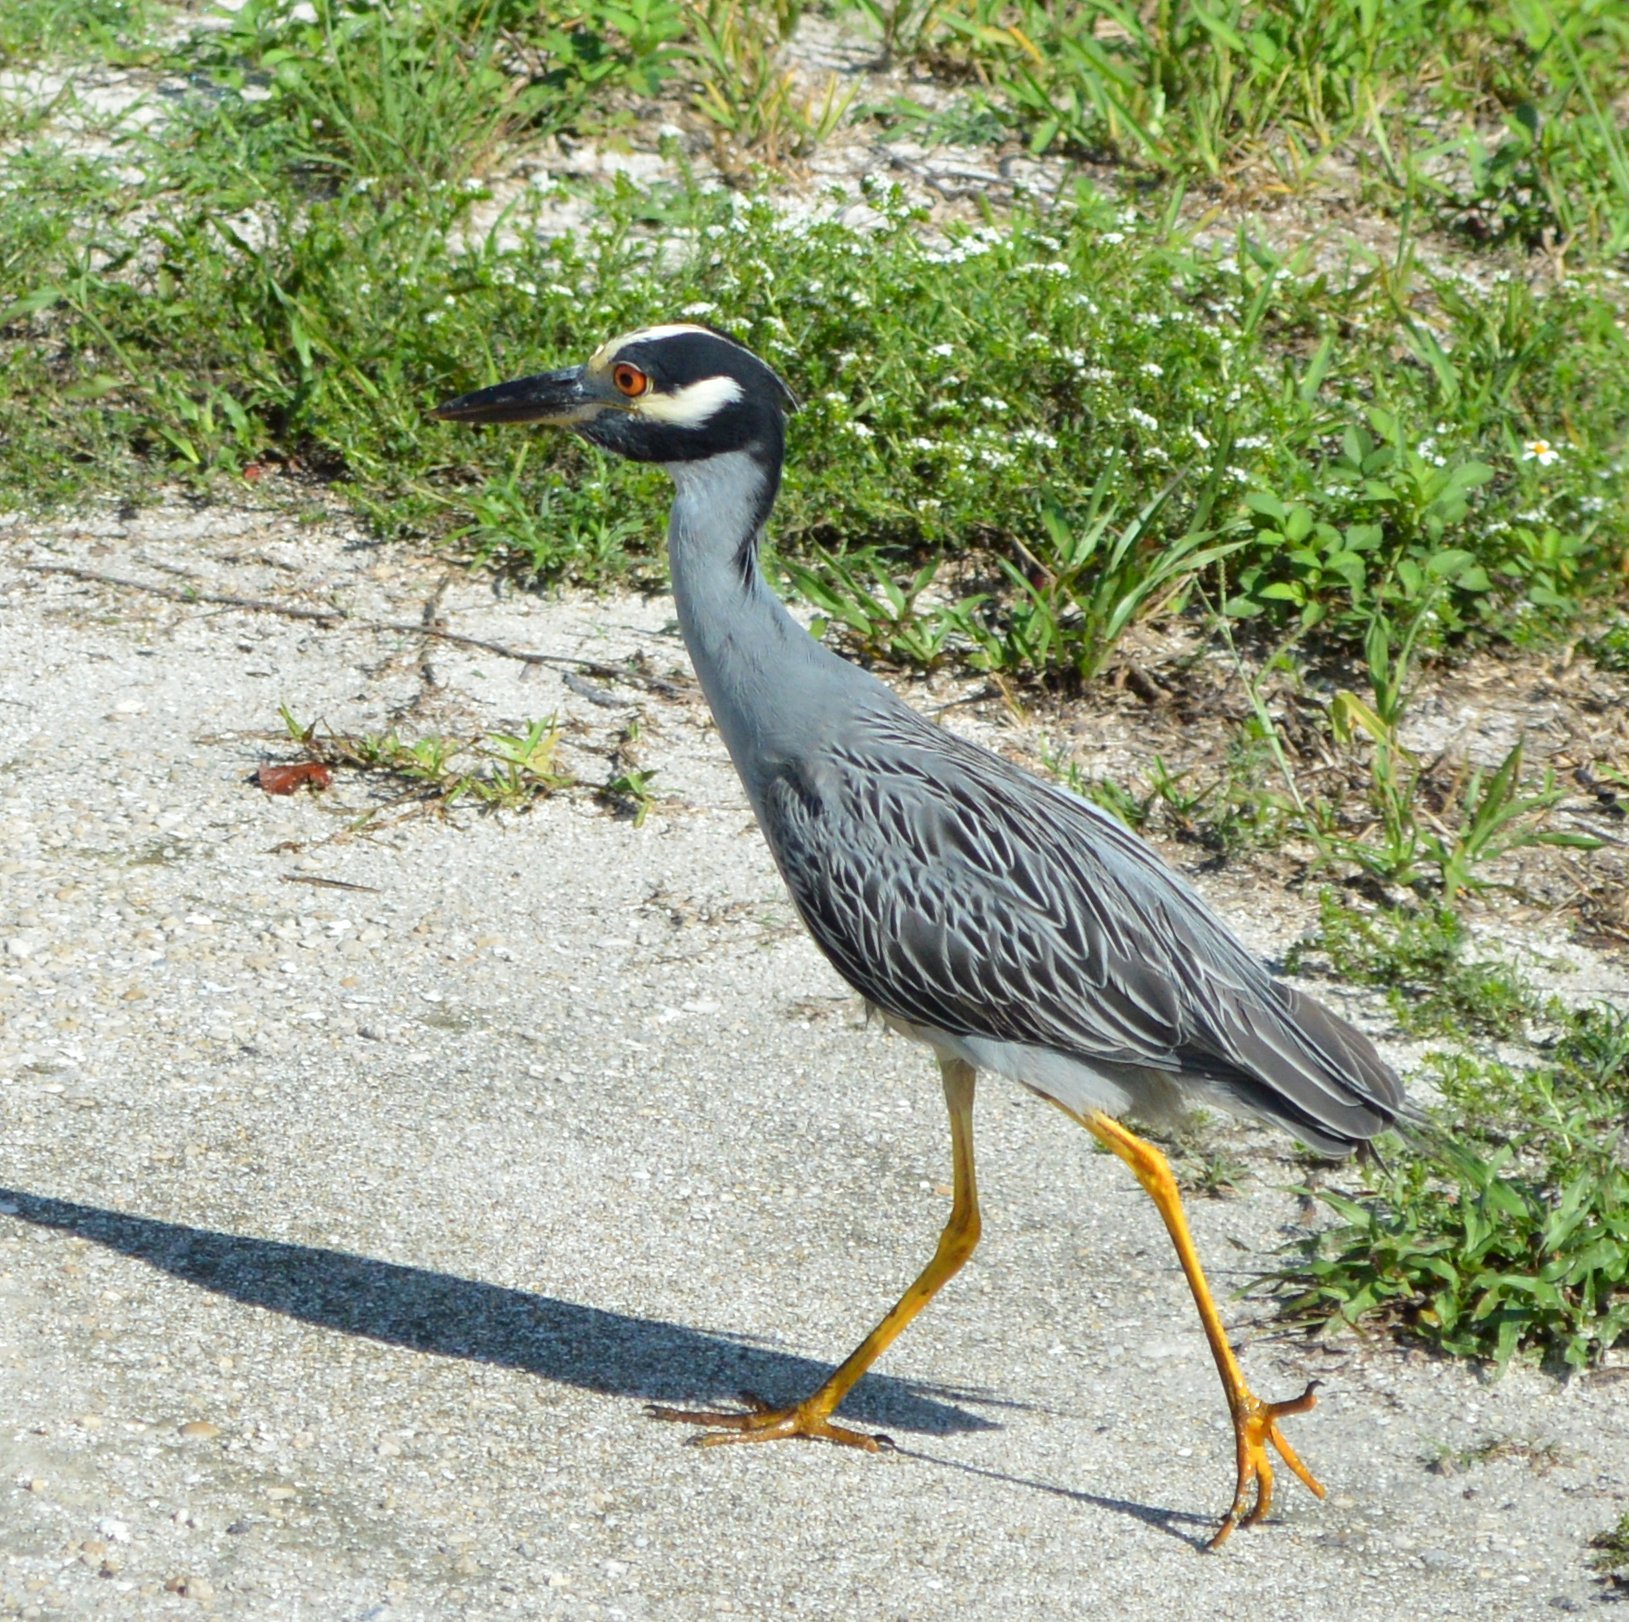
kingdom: Animalia
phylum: Chordata
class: Aves
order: Pelecaniformes
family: Ardeidae
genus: Nyctanassa
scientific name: Nyctanassa violacea
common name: Yellow-crowned night heron
